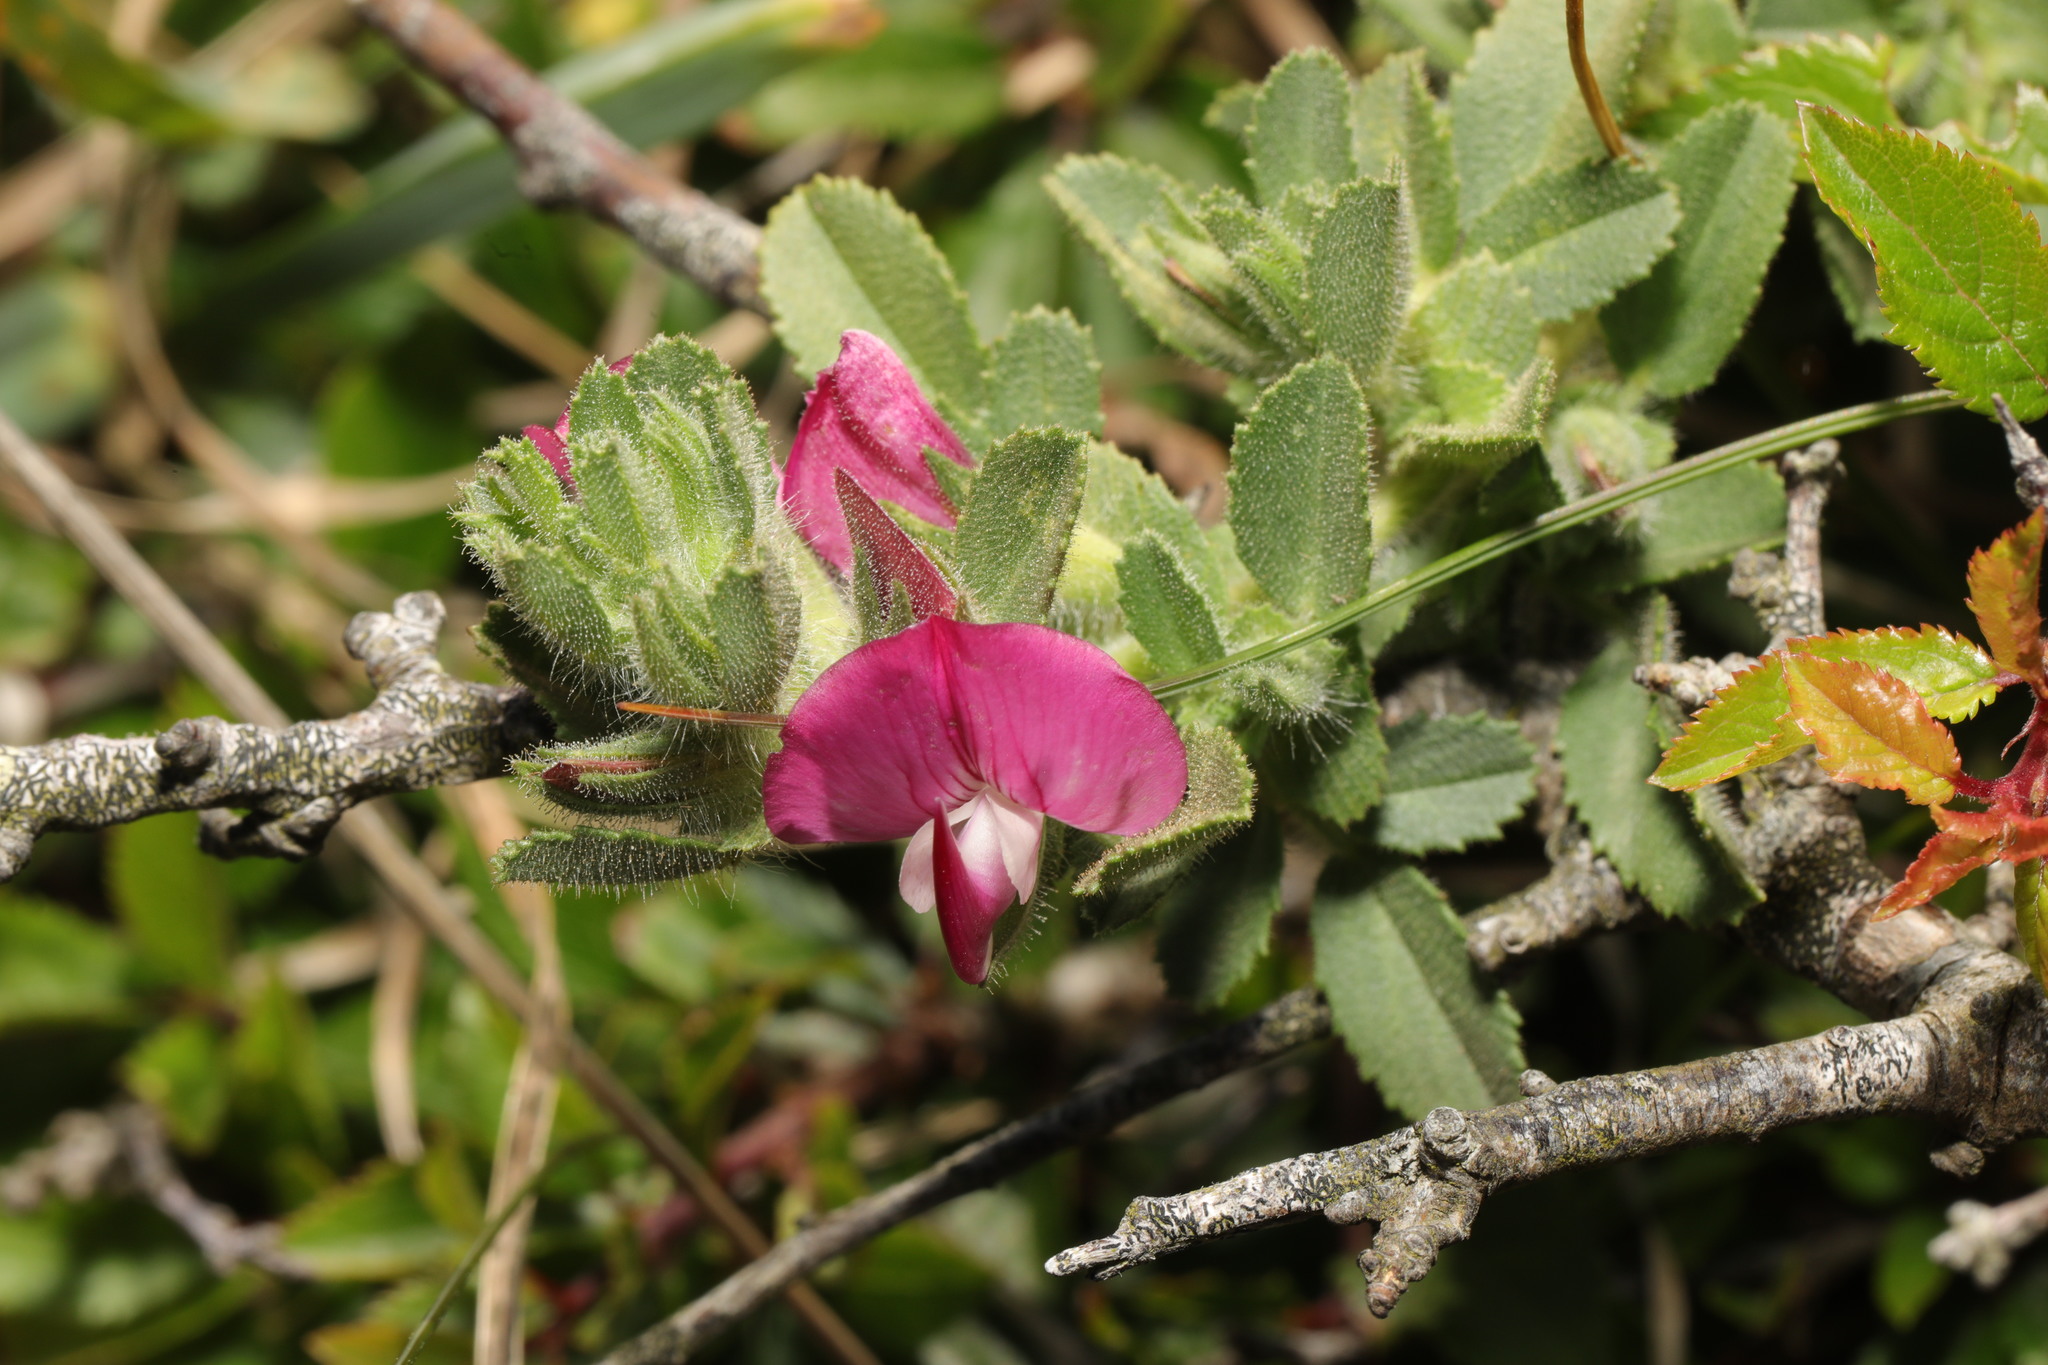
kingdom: Plantae
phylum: Tracheophyta
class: Magnoliopsida
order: Fabales
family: Fabaceae
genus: Ononis
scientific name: Ononis spinosa
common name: Spiny restharrow
